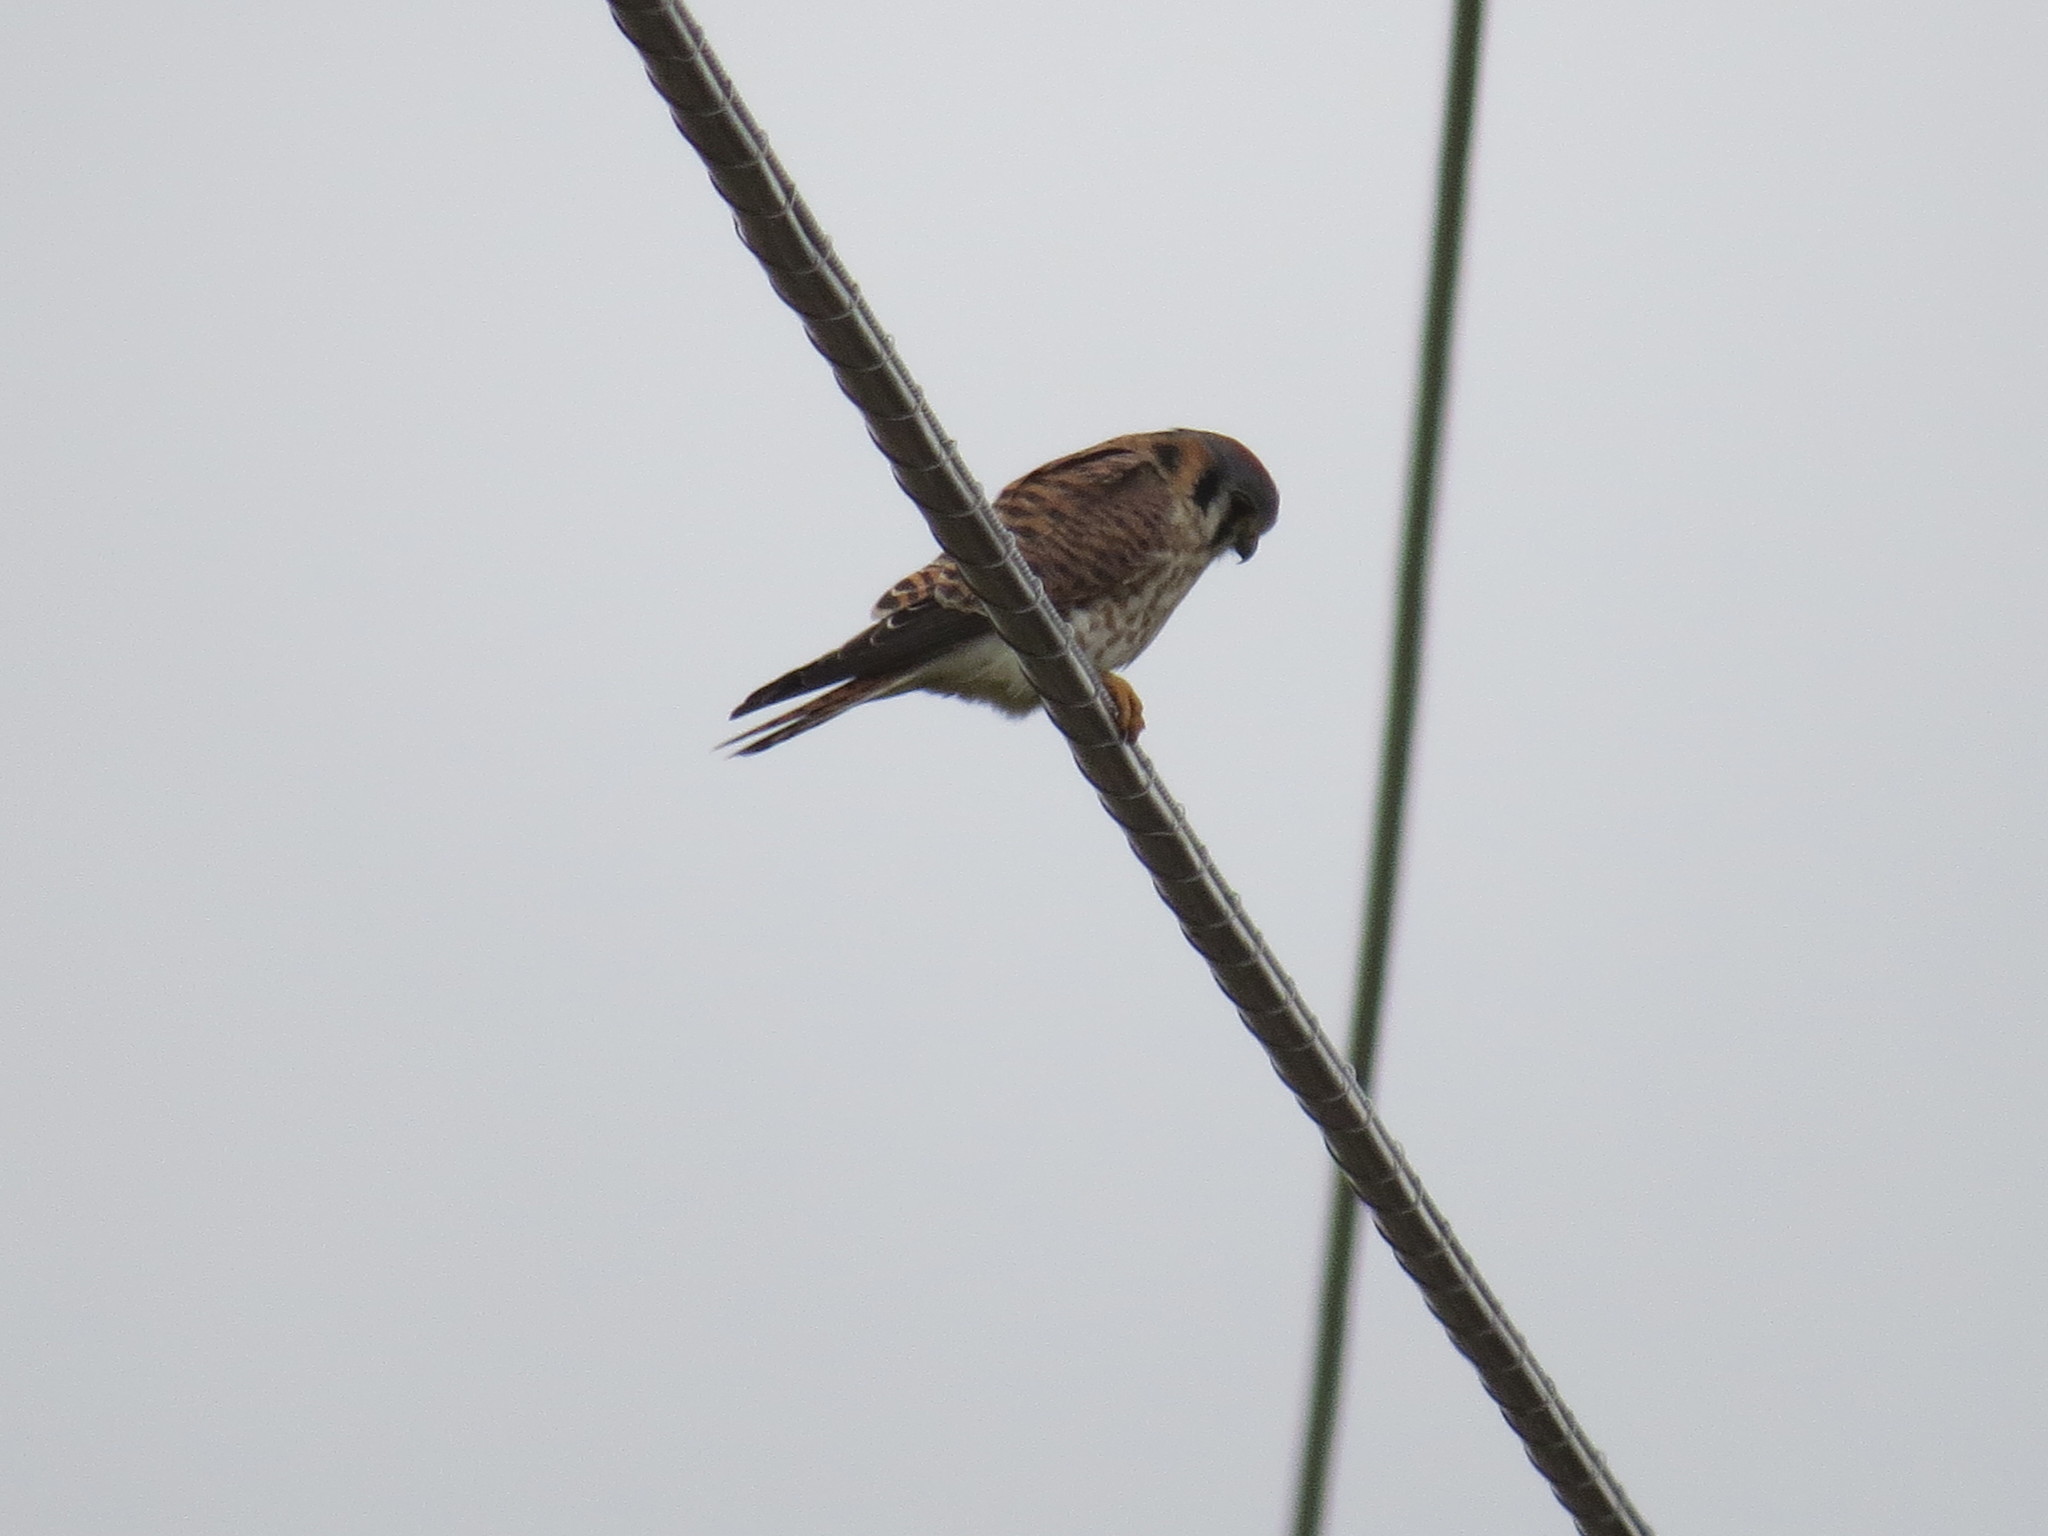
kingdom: Animalia
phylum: Chordata
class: Aves
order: Falconiformes
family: Falconidae
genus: Falco
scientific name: Falco sparverius
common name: American kestrel
